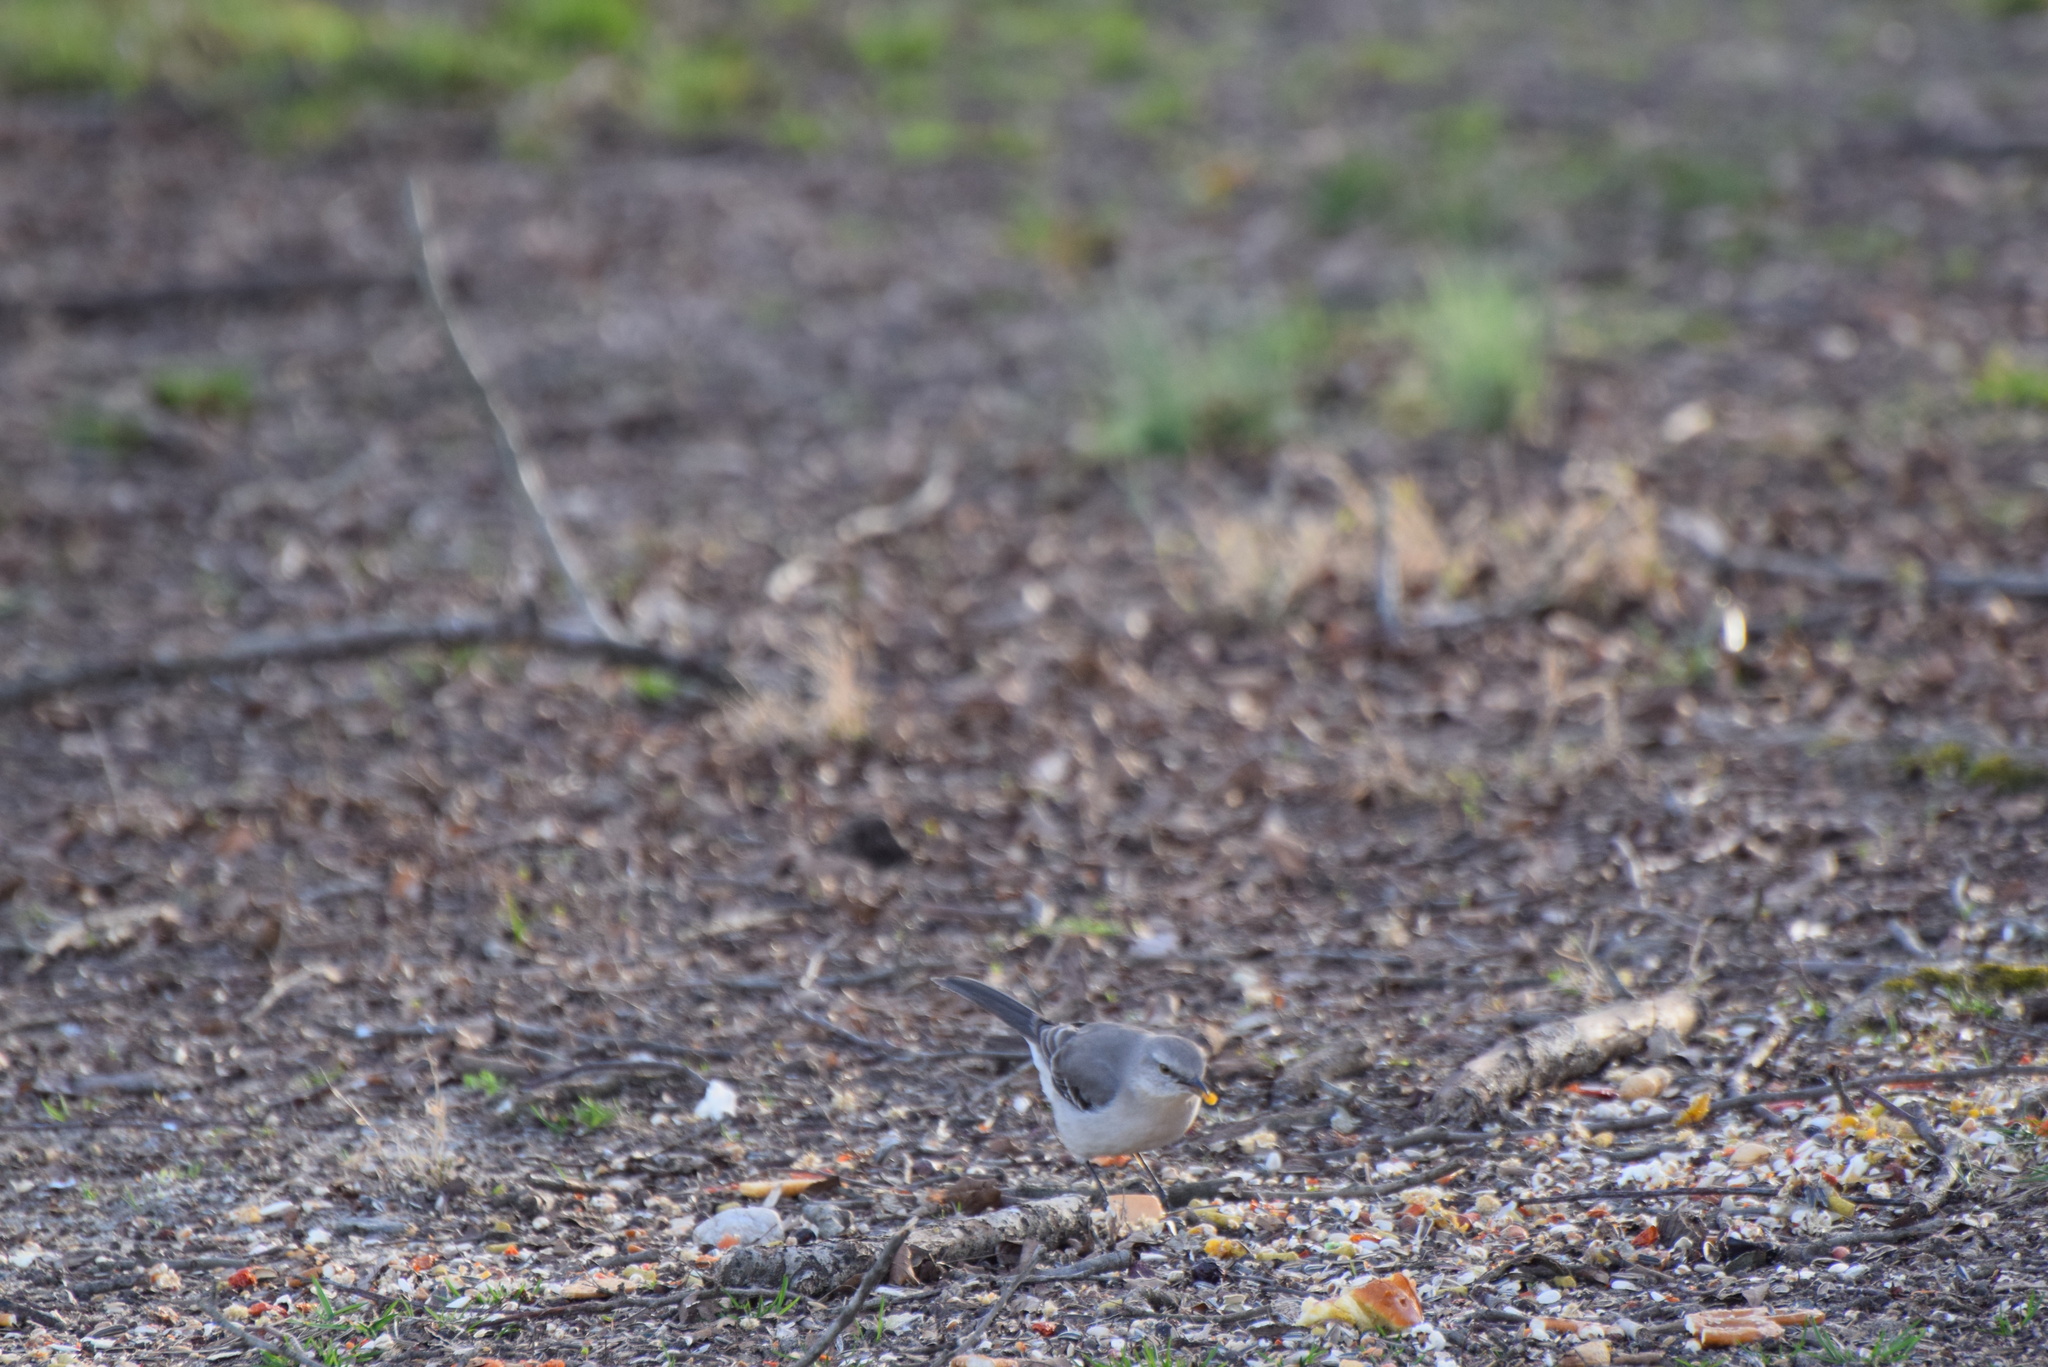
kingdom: Animalia
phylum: Chordata
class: Aves
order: Passeriformes
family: Mimidae
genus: Mimus
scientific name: Mimus polyglottos
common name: Northern mockingbird
